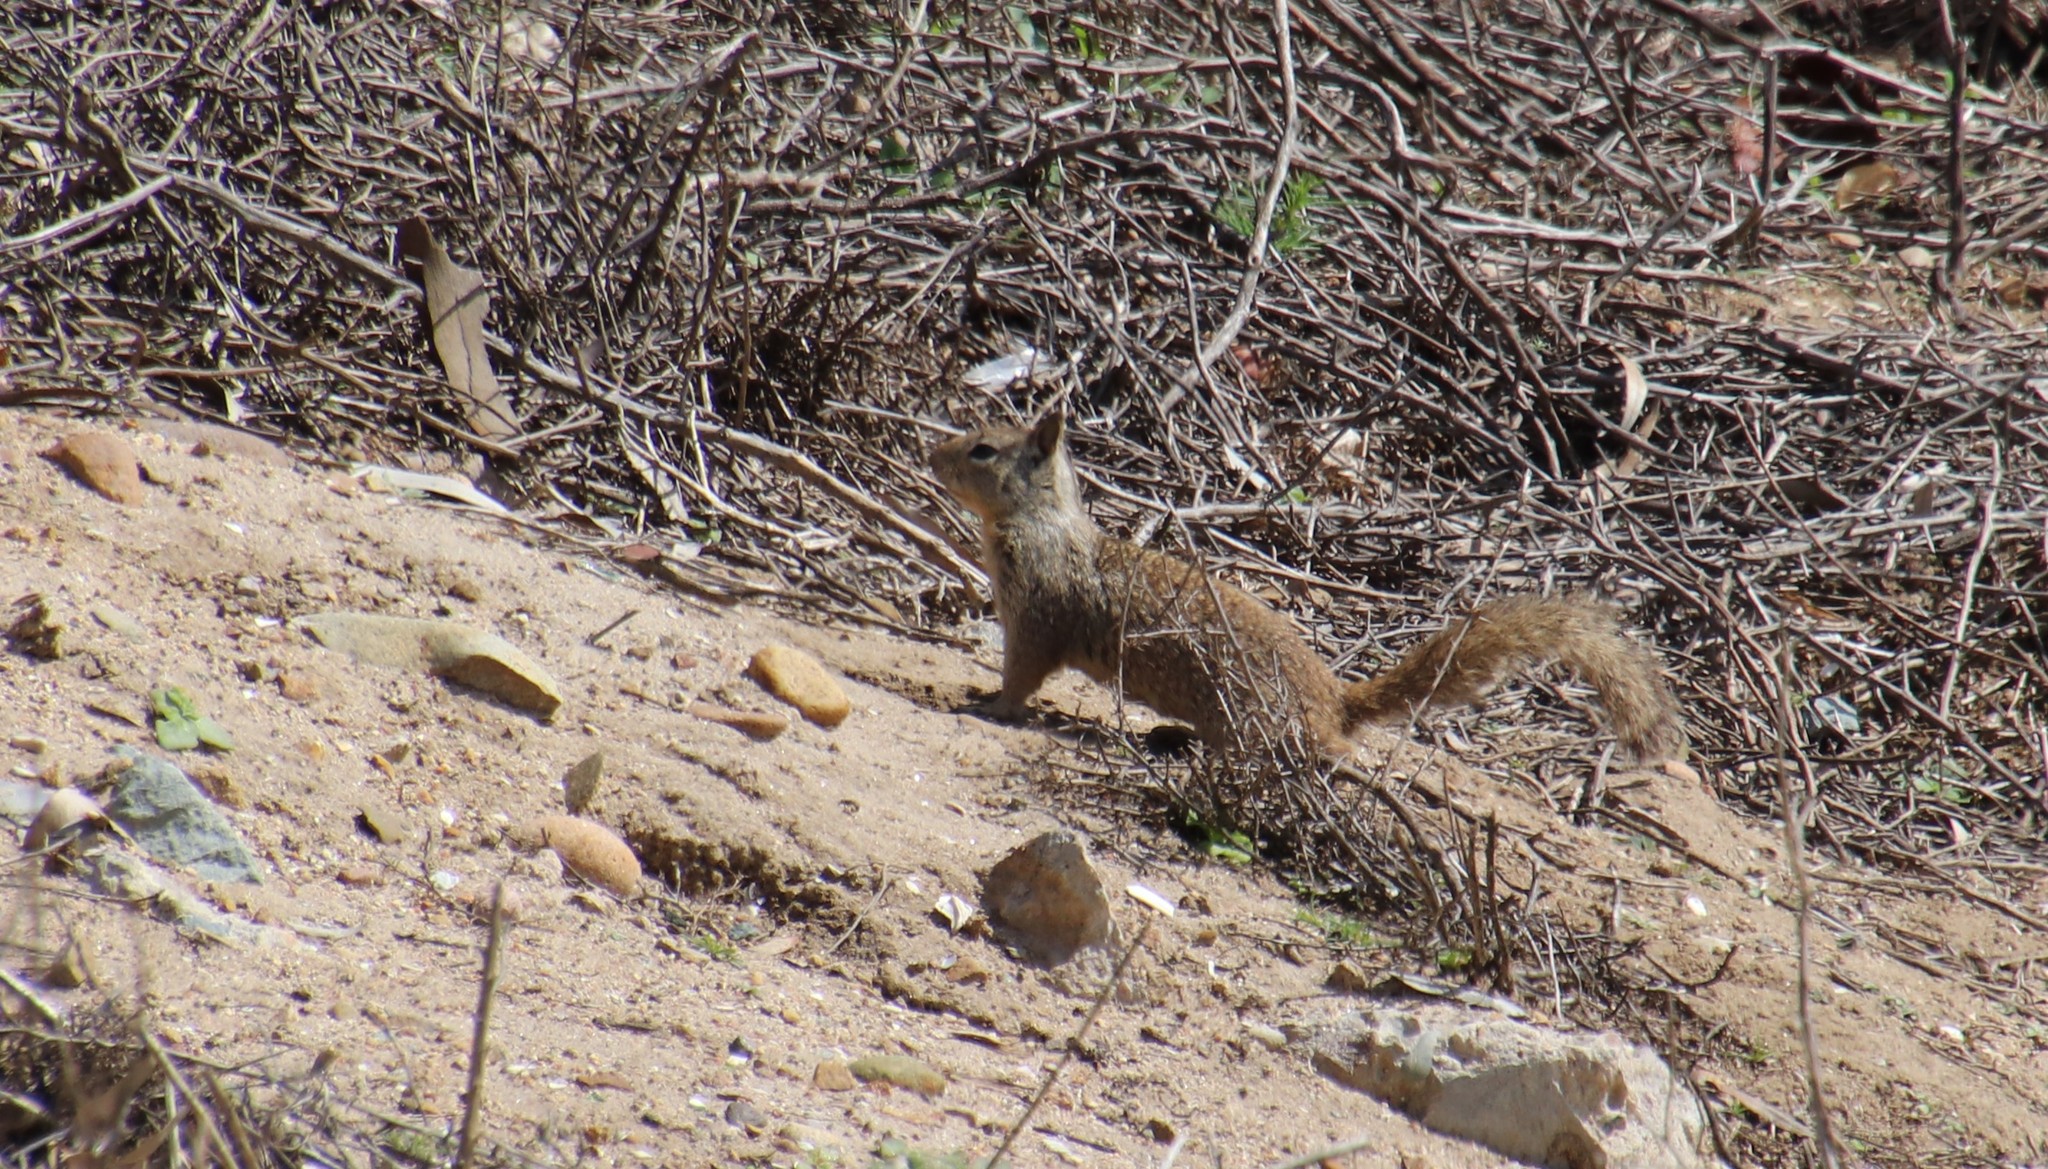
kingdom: Animalia
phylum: Chordata
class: Mammalia
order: Rodentia
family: Sciuridae
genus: Otospermophilus
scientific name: Otospermophilus beecheyi
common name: California ground squirrel
